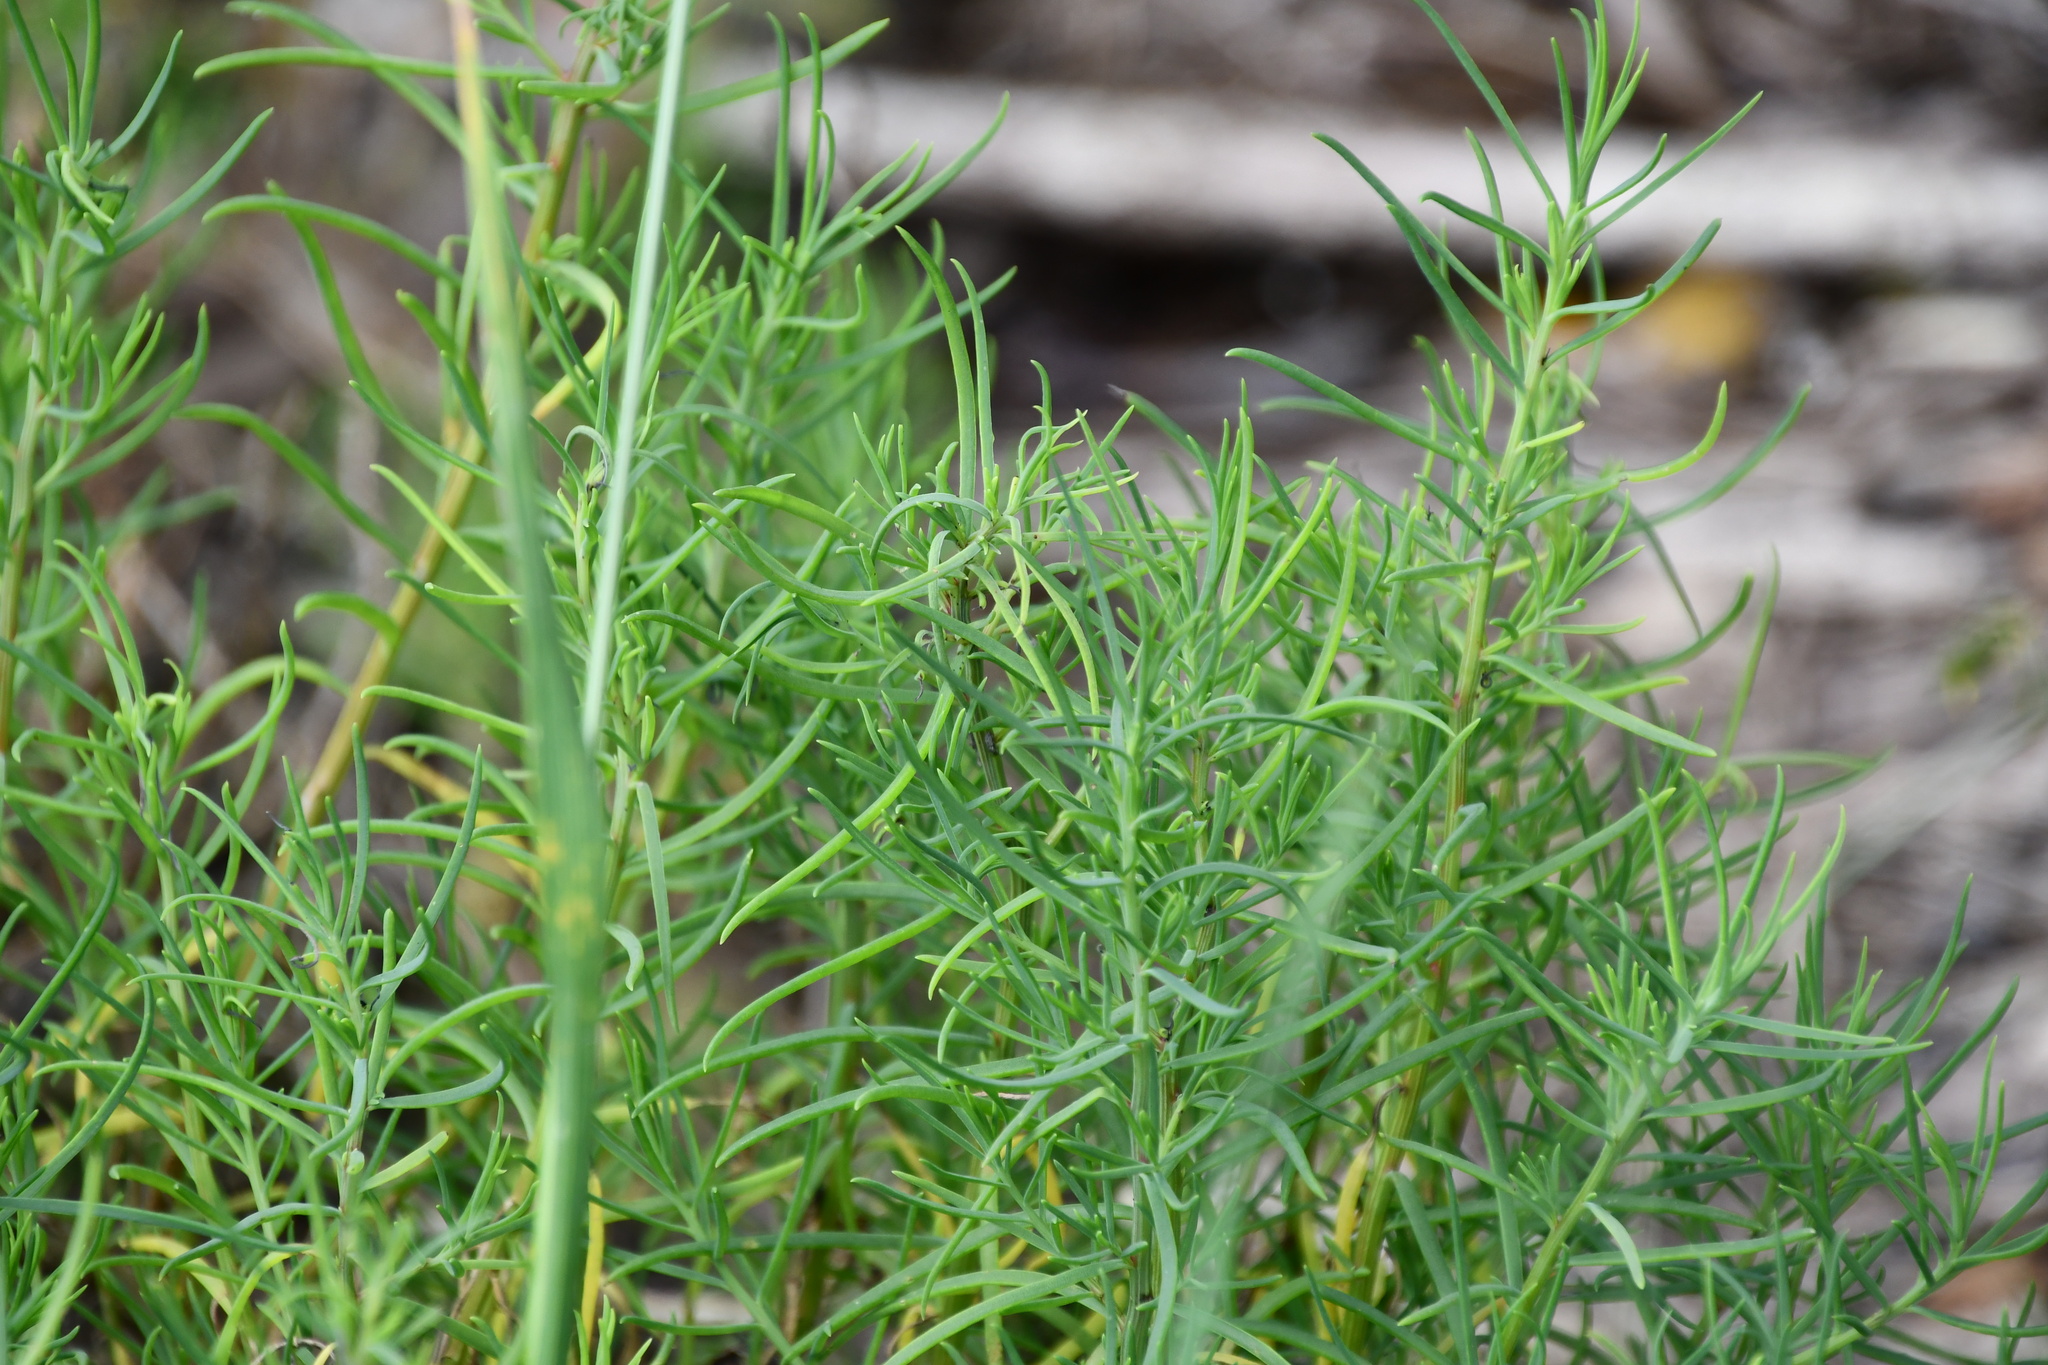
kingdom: Plantae
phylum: Tracheophyta
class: Magnoliopsida
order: Caryophyllales
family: Amaranthaceae
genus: Suaeda
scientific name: Suaeda australis
